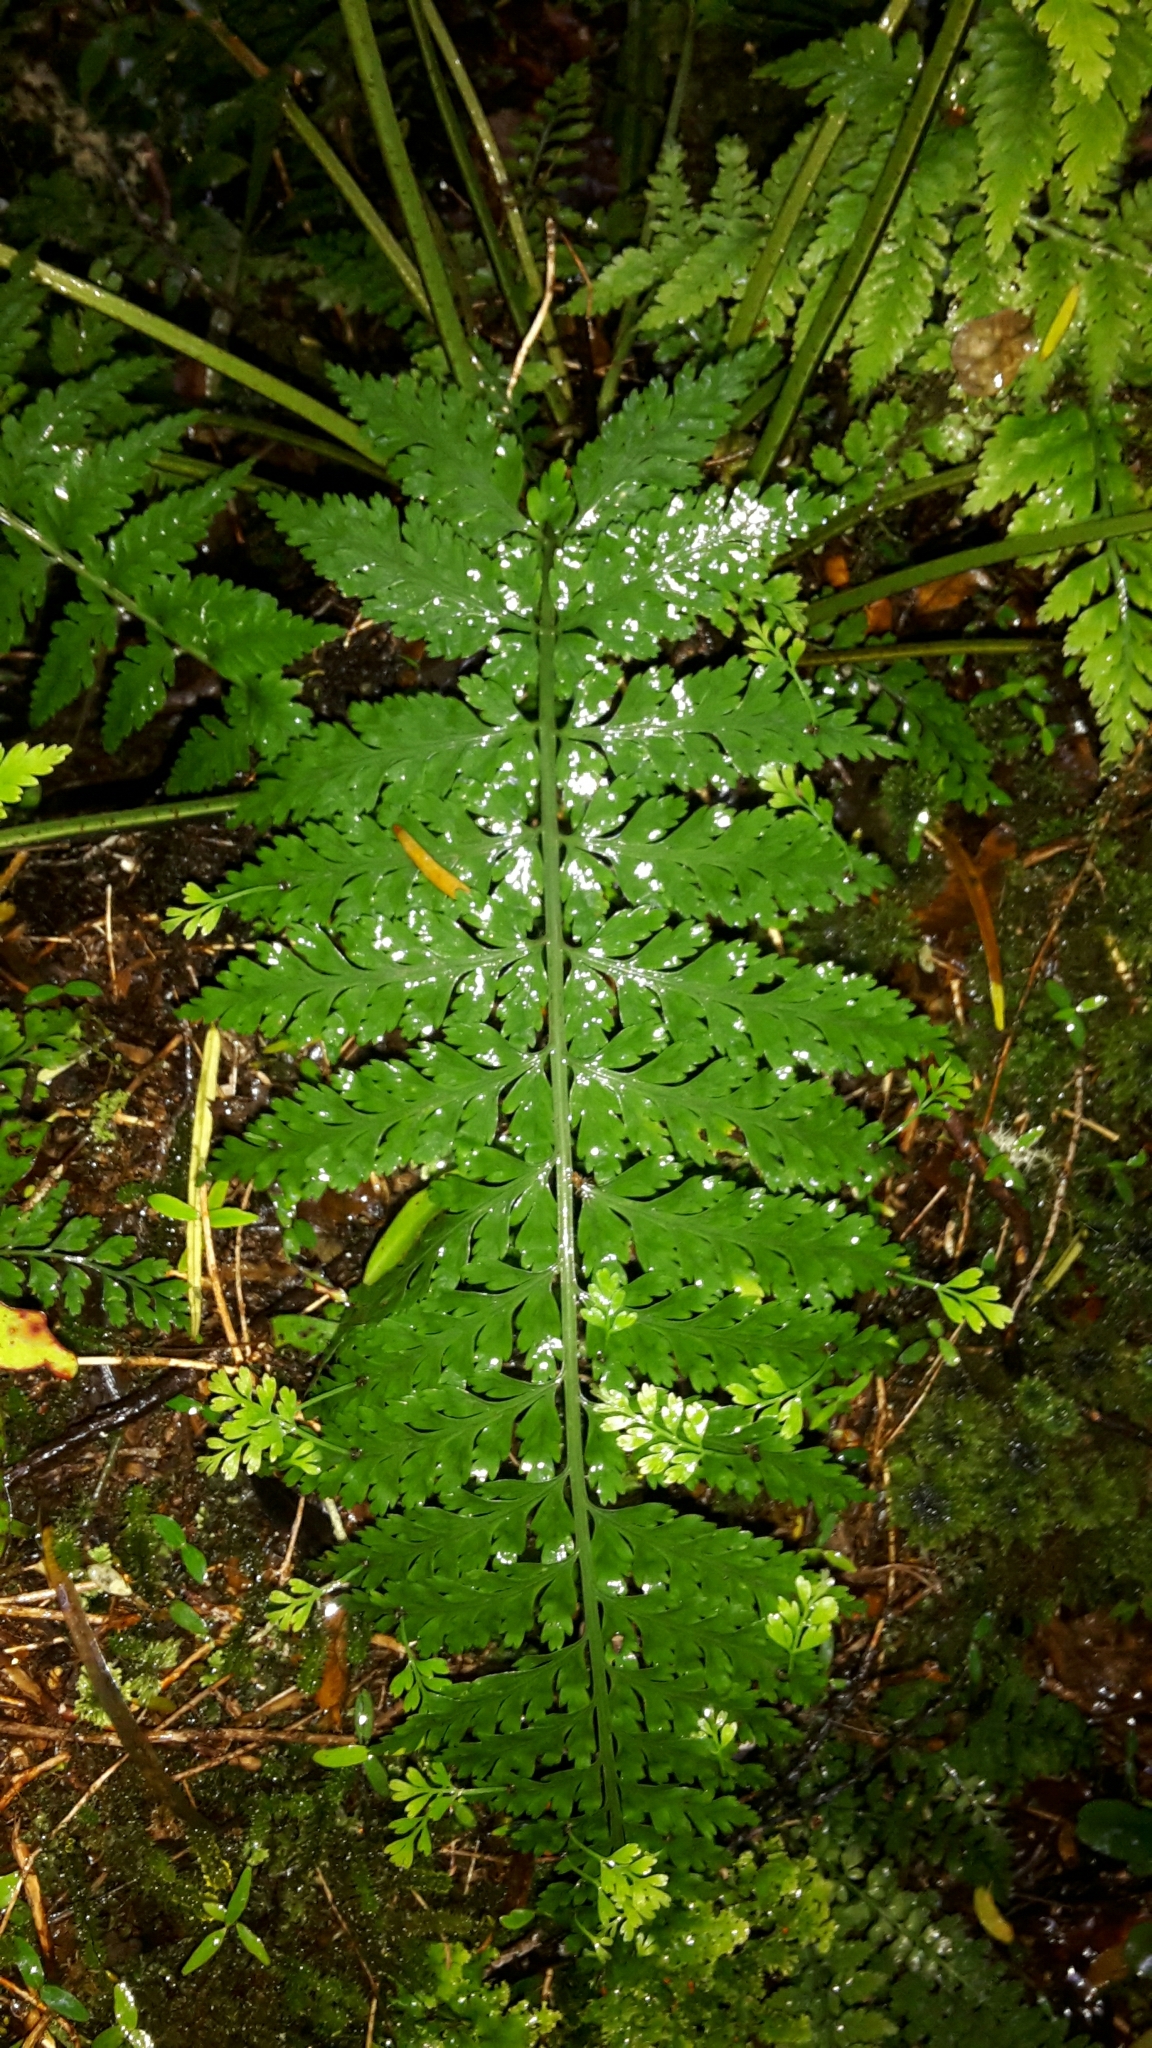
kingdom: Plantae
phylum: Tracheophyta
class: Polypodiopsida
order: Polypodiales
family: Aspleniaceae
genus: Asplenium
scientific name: Asplenium bulbiferum
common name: Mother fern
